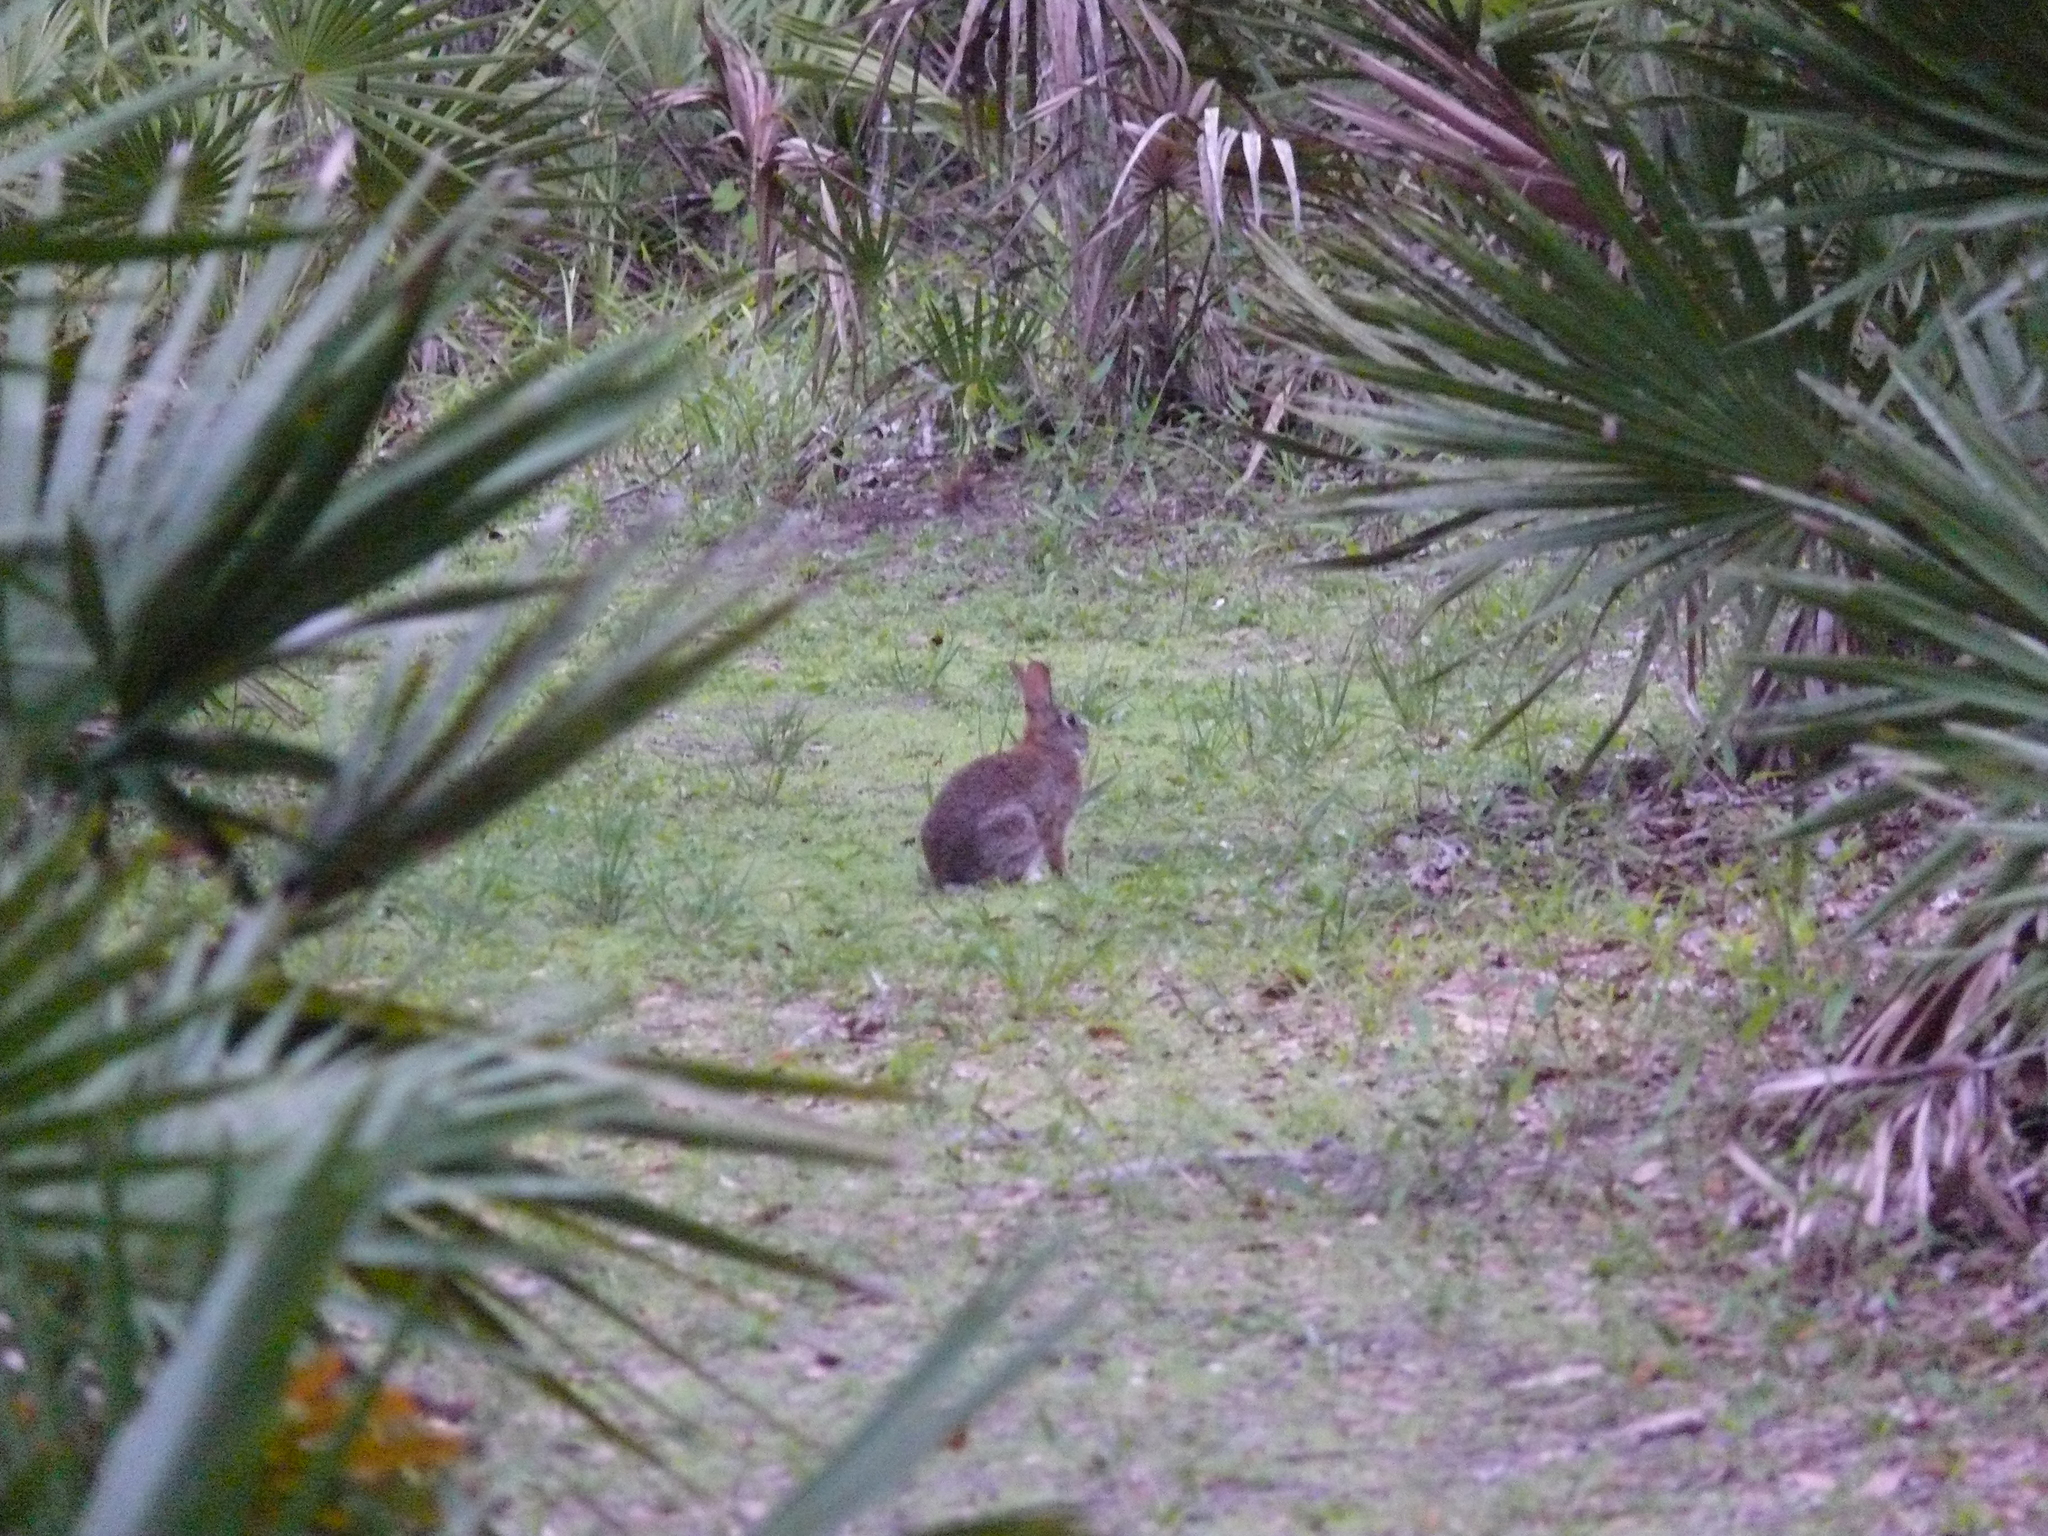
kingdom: Animalia
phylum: Chordata
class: Mammalia
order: Lagomorpha
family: Leporidae
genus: Sylvilagus
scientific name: Sylvilagus floridanus
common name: Eastern cottontail
